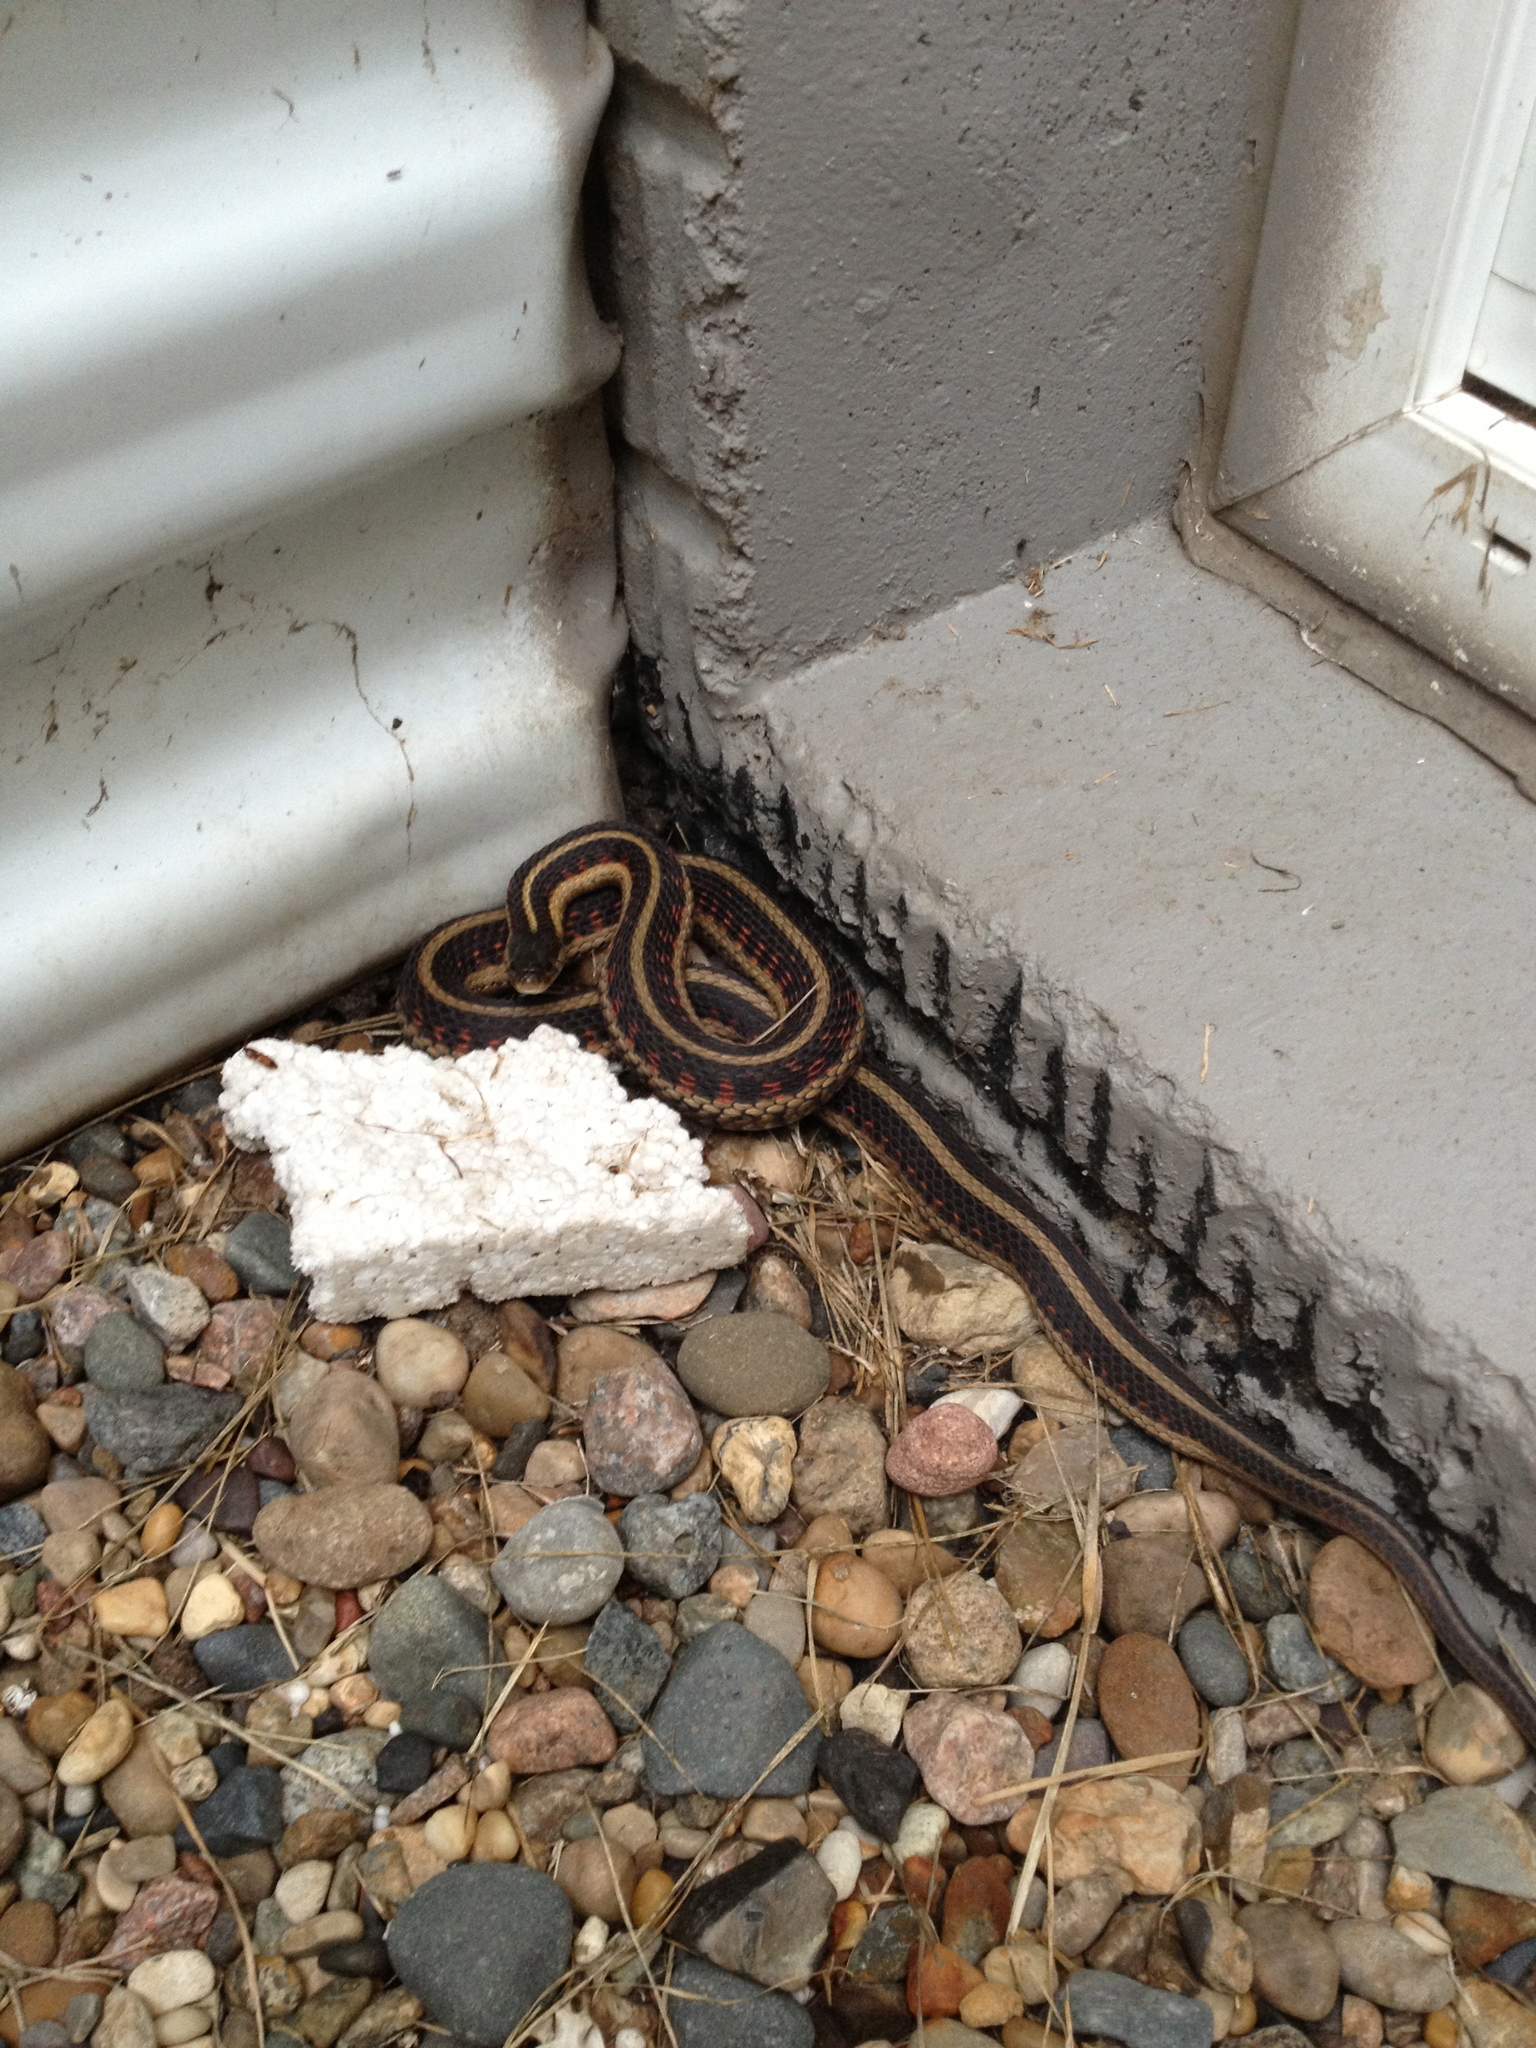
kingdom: Animalia
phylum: Chordata
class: Squamata
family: Colubridae
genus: Thamnophis
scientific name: Thamnophis sirtalis
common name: Common garter snake
